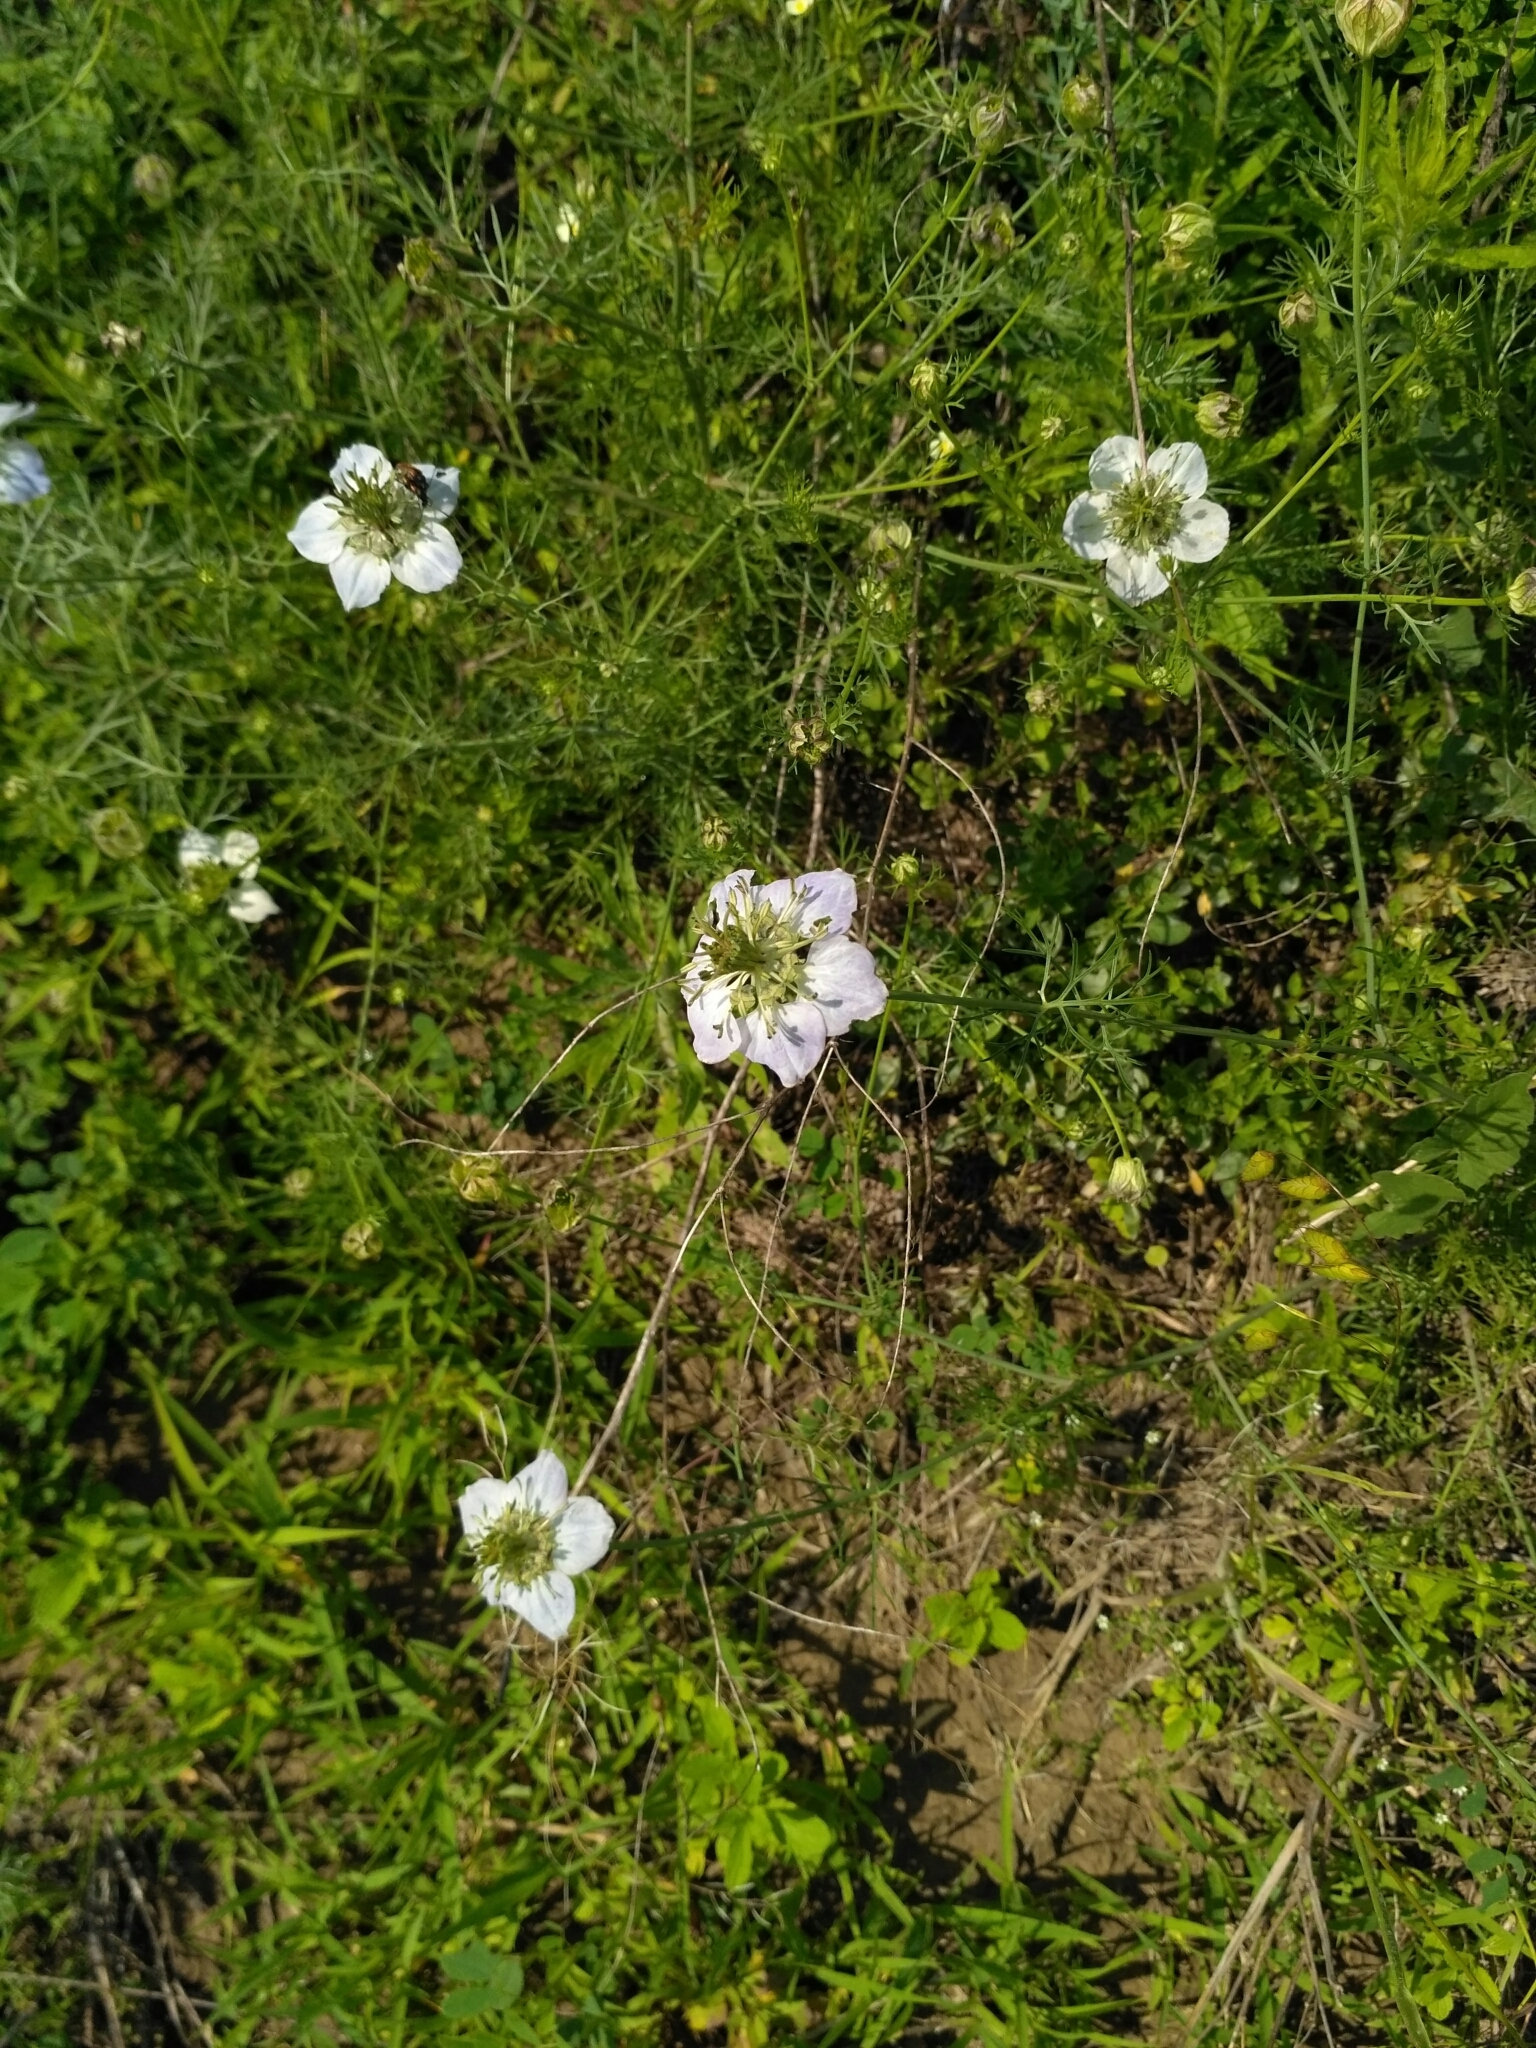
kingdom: Plantae
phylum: Tracheophyta
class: Magnoliopsida
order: Ranunculales
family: Ranunculaceae
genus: Nigella
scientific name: Nigella arvensis
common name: Wild fennel-flower
